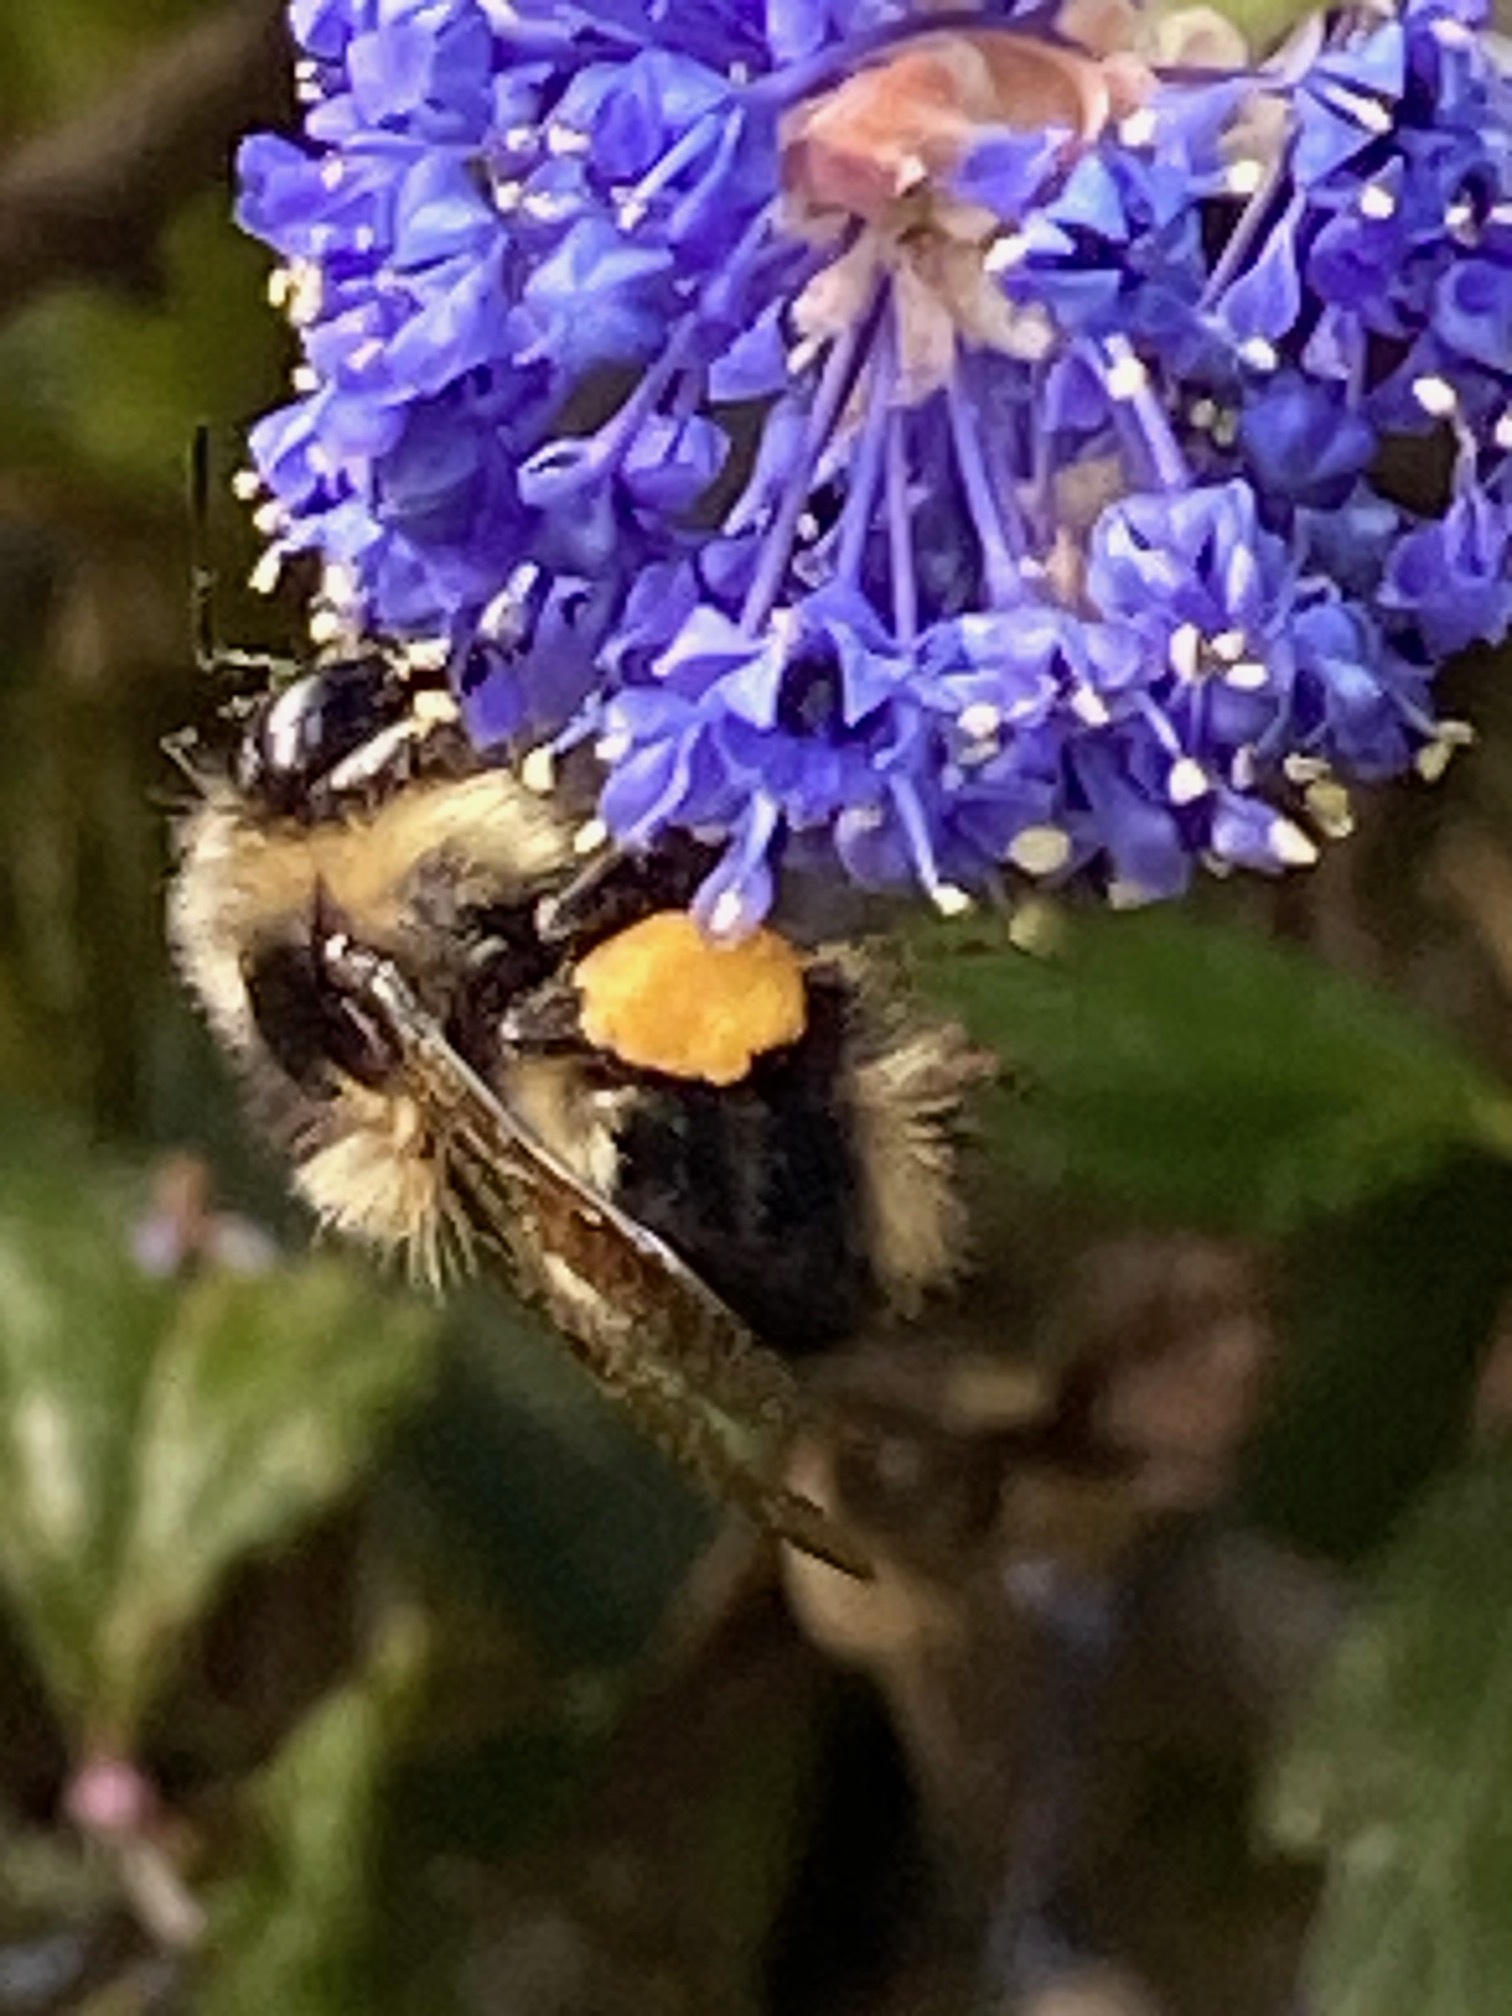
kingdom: Animalia
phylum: Arthropoda
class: Insecta
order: Hymenoptera
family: Apidae
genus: Bombus
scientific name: Bombus melanopygus
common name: Black tail bumble bee
